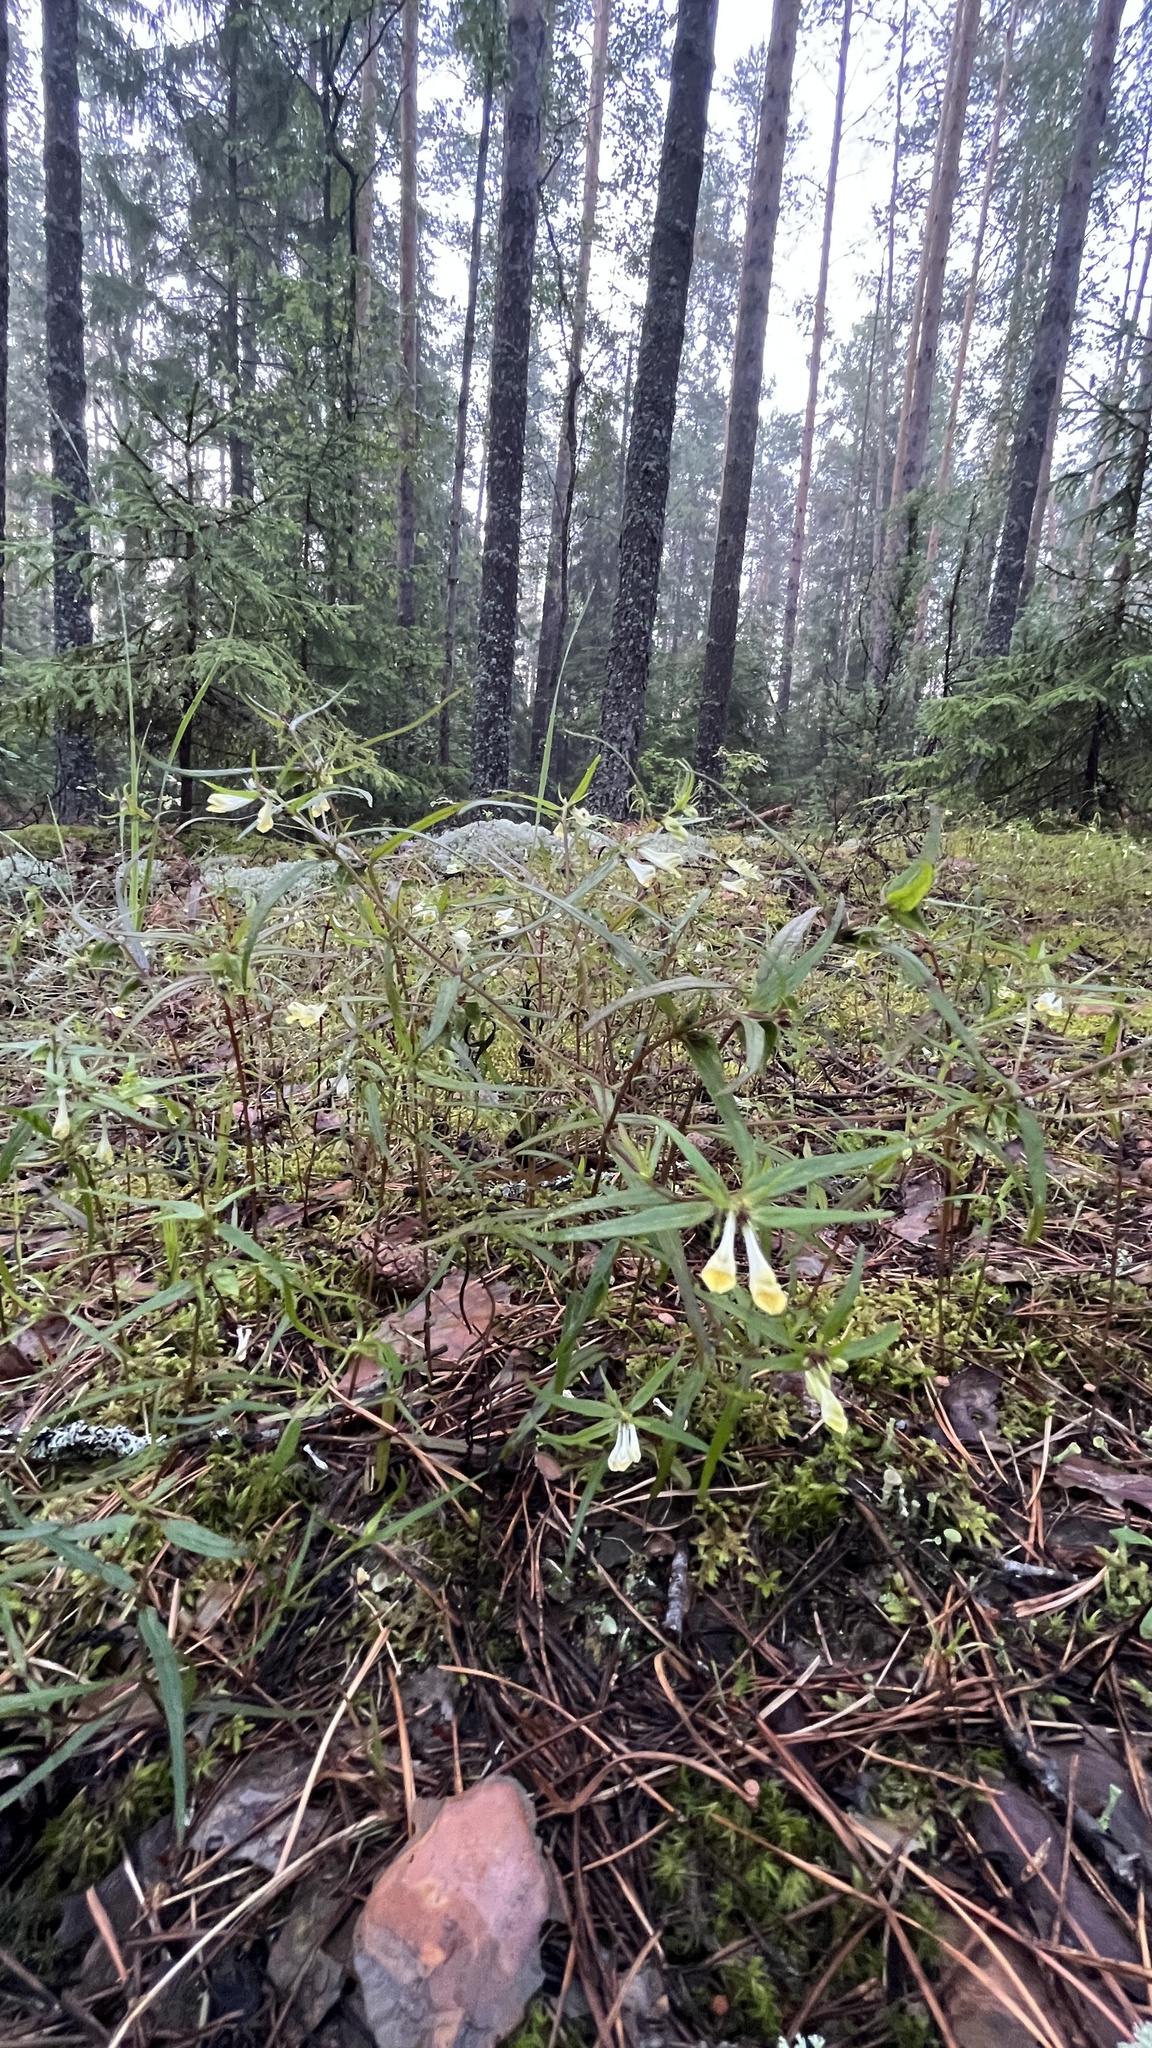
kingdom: Plantae
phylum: Tracheophyta
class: Magnoliopsida
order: Lamiales
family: Orobanchaceae
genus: Melampyrum
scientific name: Melampyrum pratense
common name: Common cow-wheat
